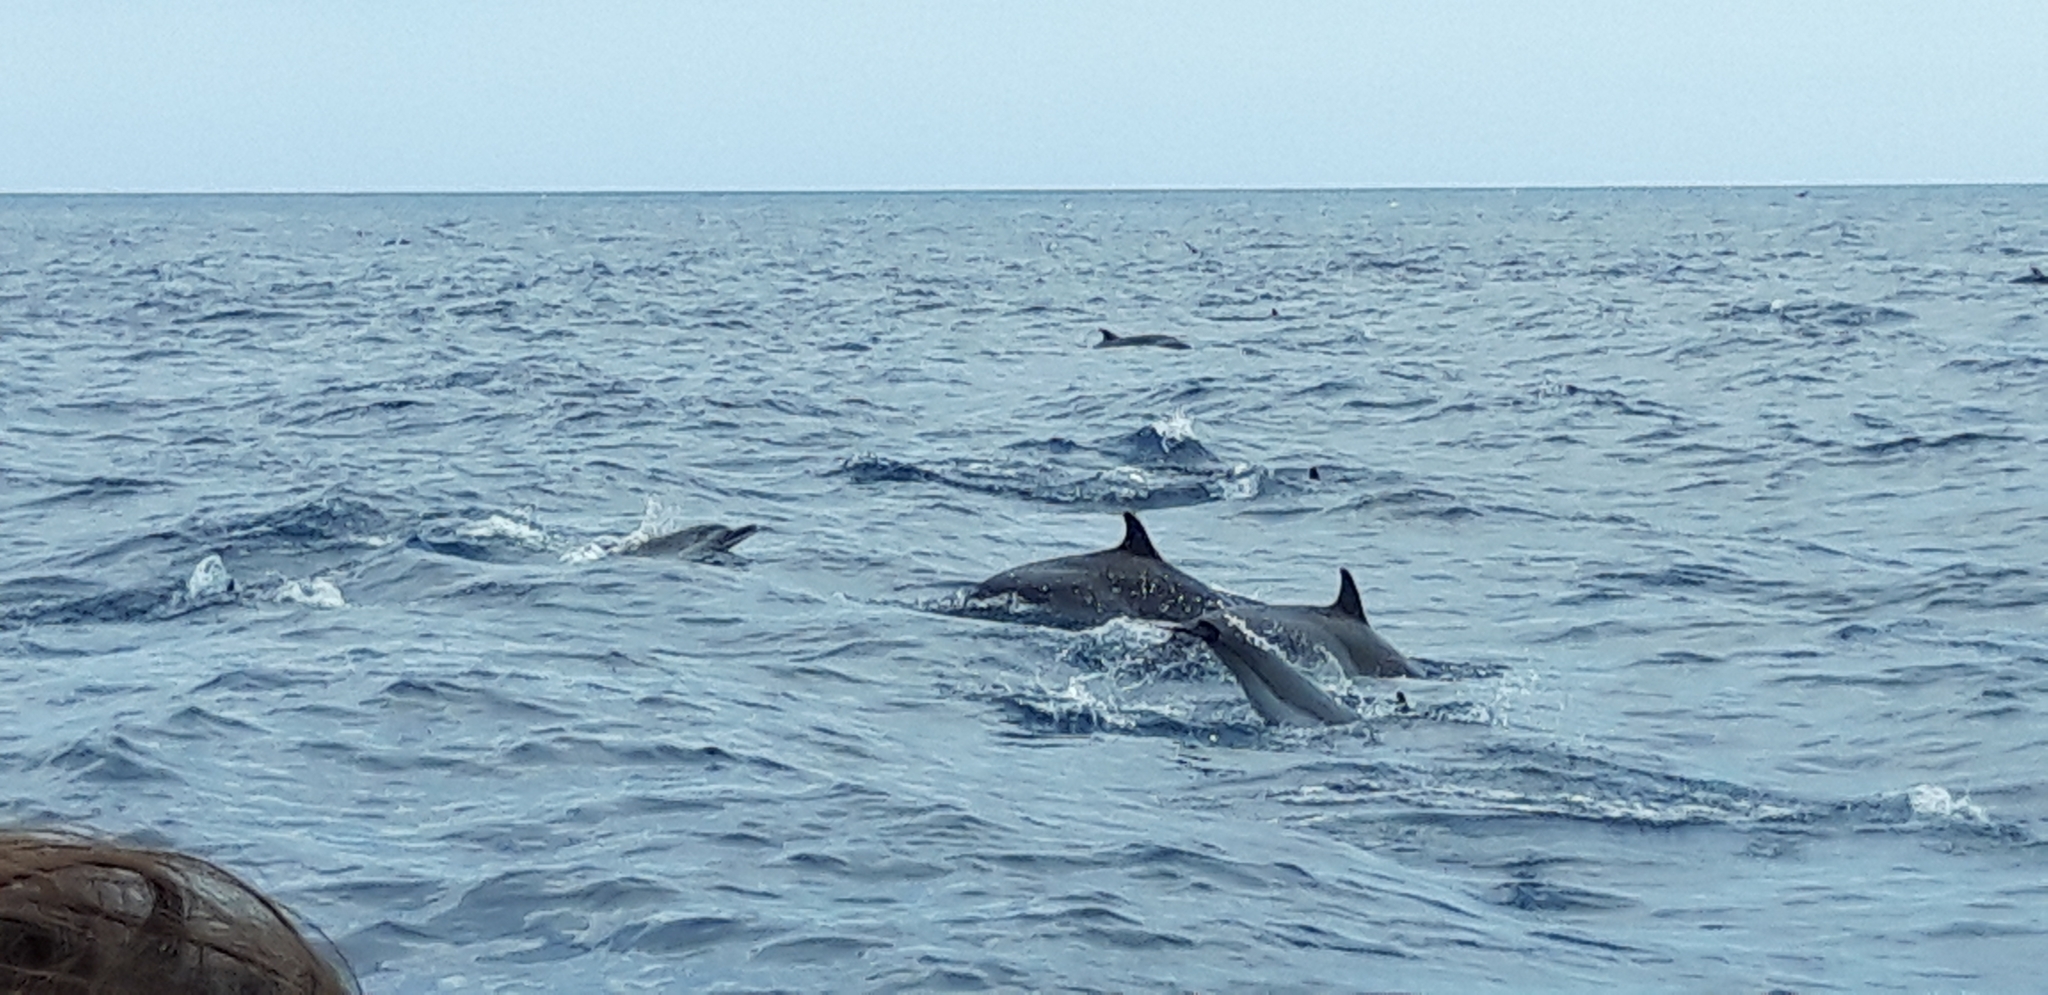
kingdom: Animalia
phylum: Chordata
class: Mammalia
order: Cetacea
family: Delphinidae
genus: Stenella
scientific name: Stenella attenuata
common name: Pantropical spotted dolphin
